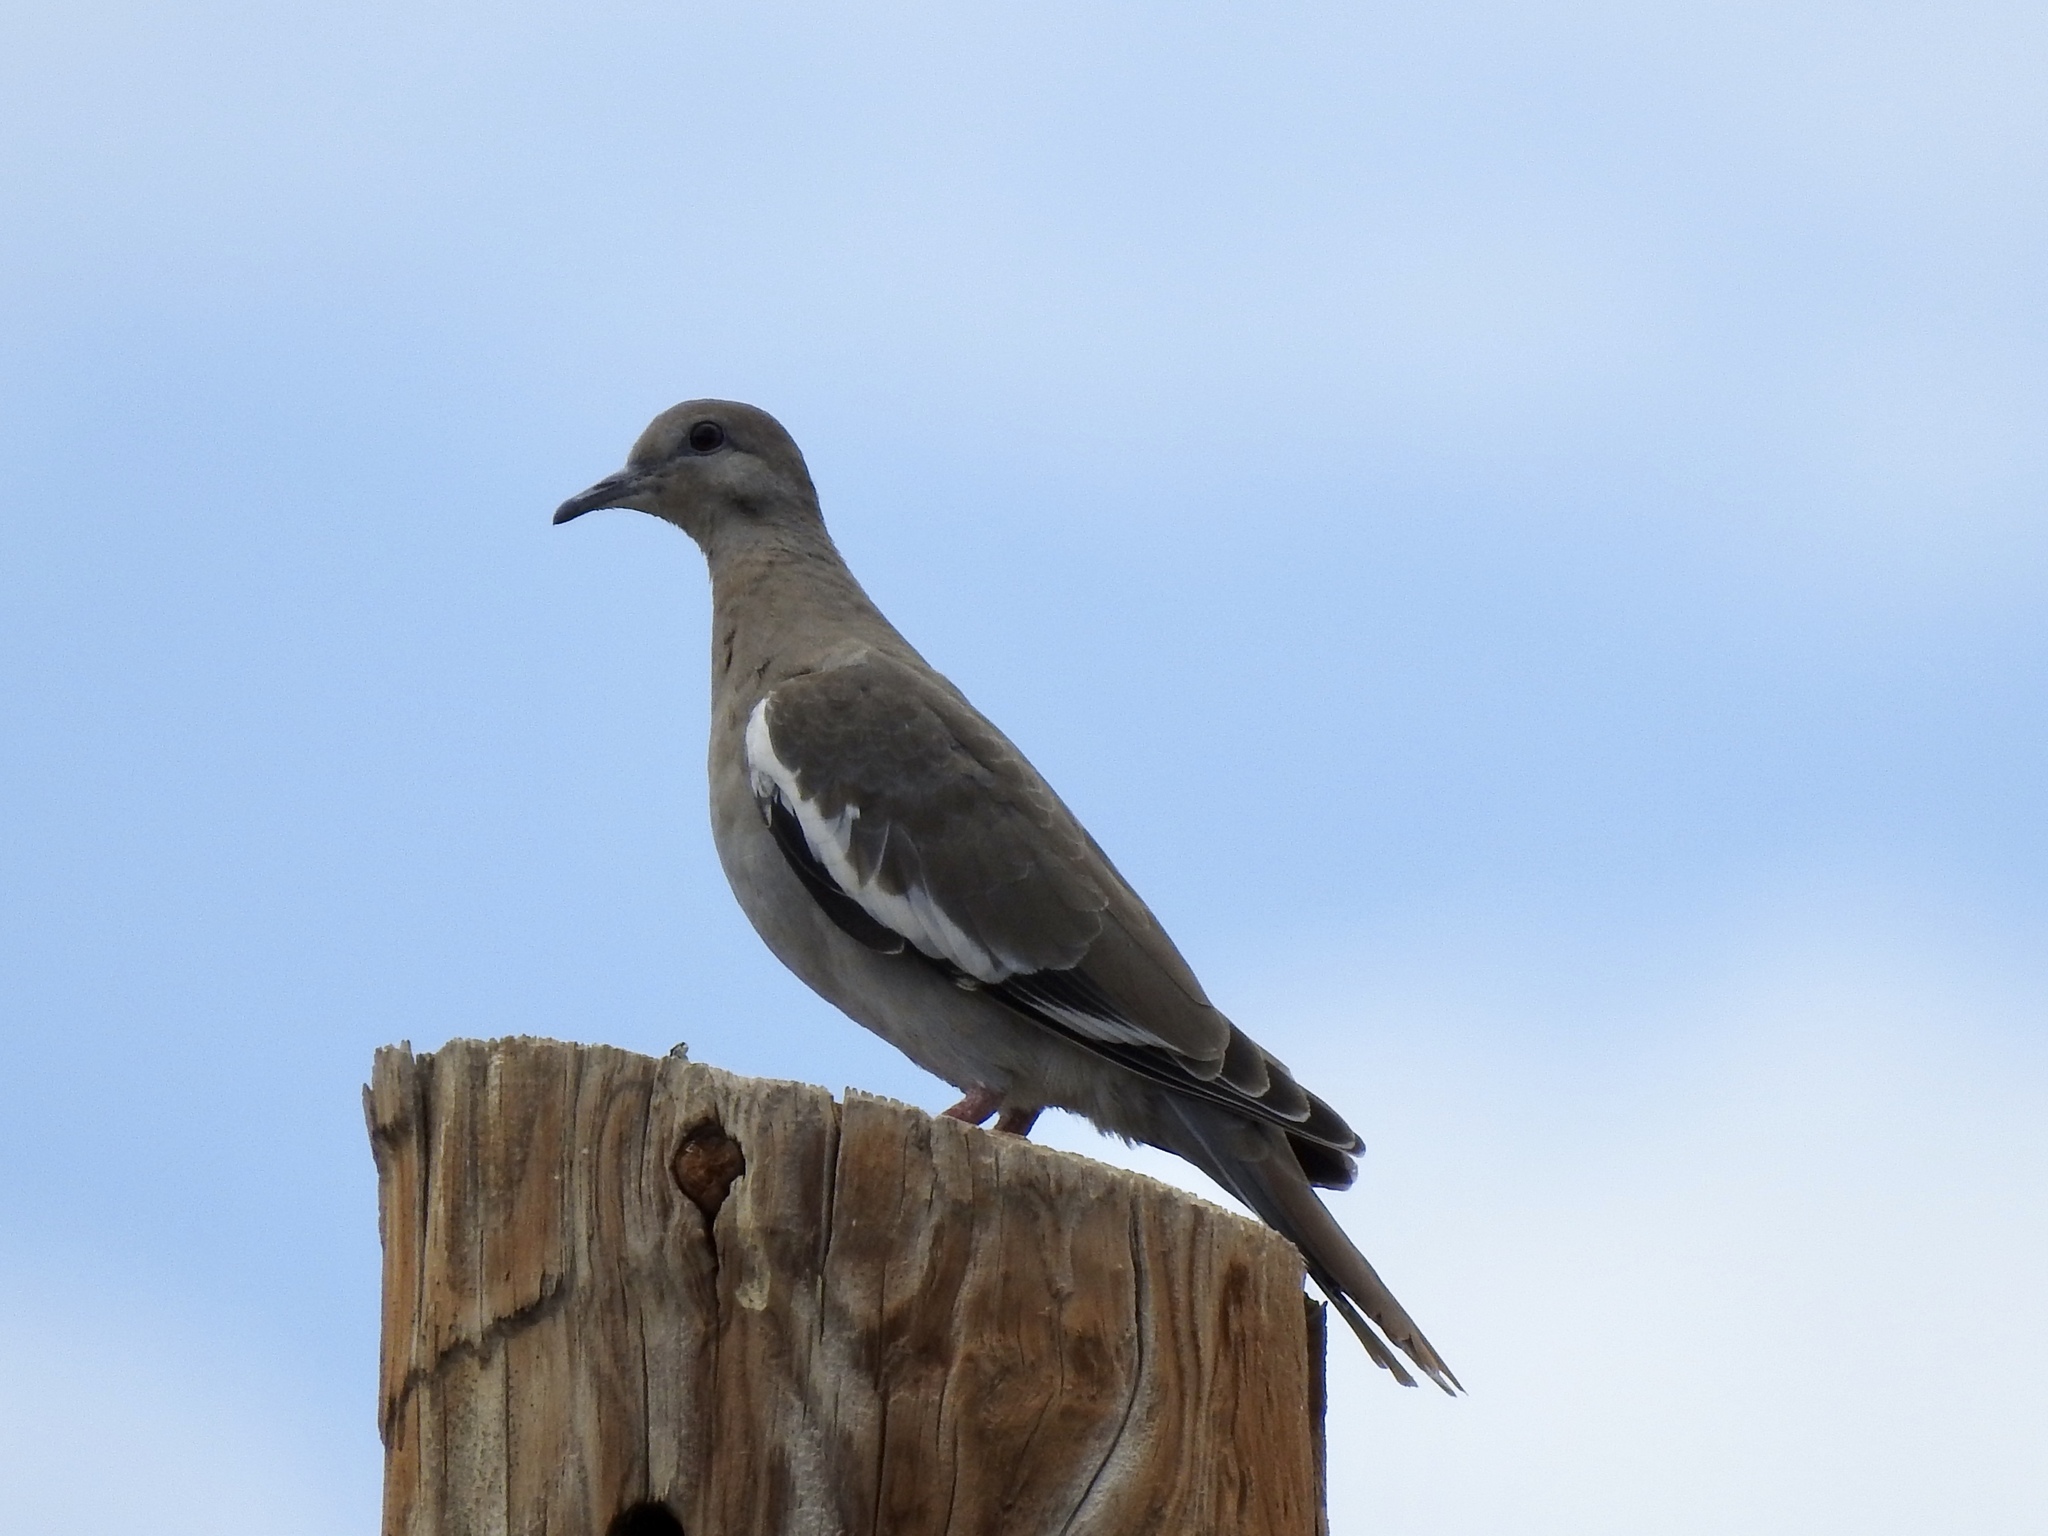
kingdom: Animalia
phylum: Chordata
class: Aves
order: Columbiformes
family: Columbidae
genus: Zenaida
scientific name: Zenaida asiatica
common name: White-winged dove
